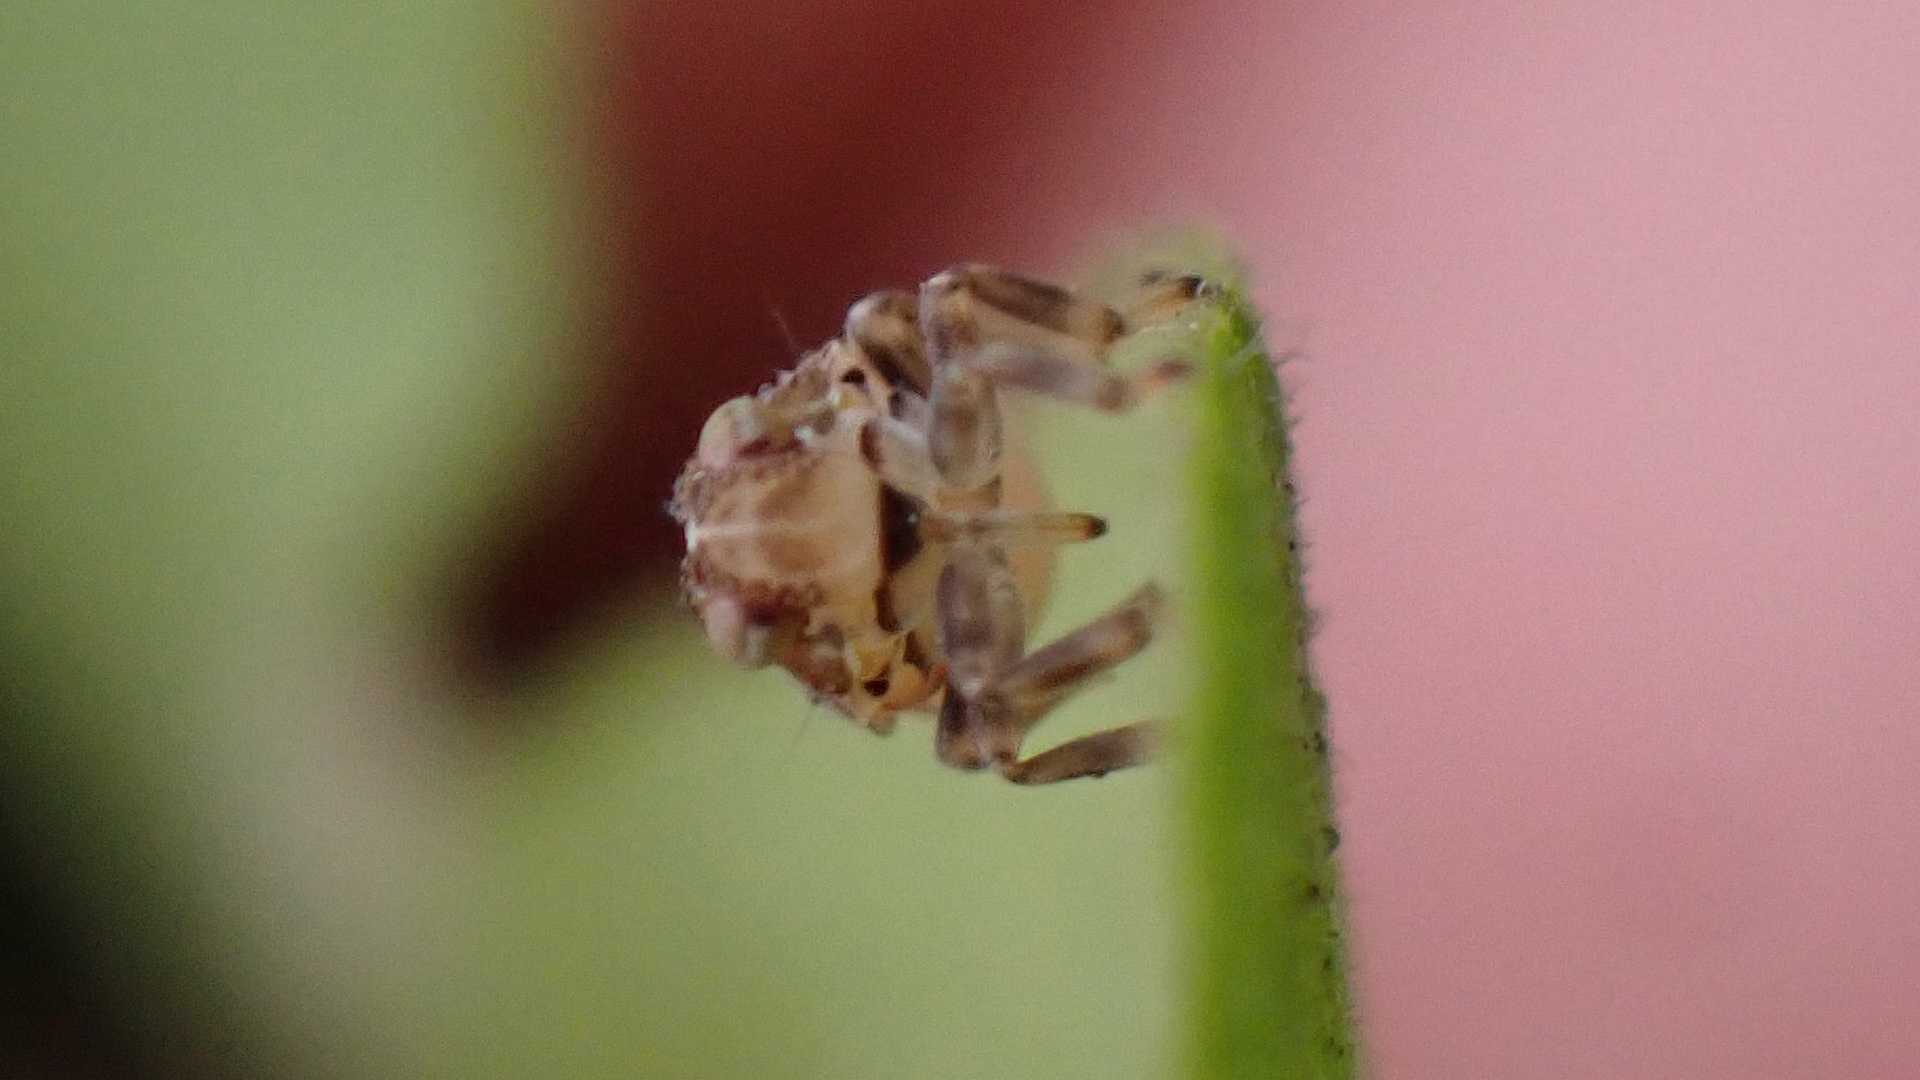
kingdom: Animalia
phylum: Arthropoda
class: Insecta
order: Hemiptera
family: Issidae
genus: Issus
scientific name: Issus coleoptratus
